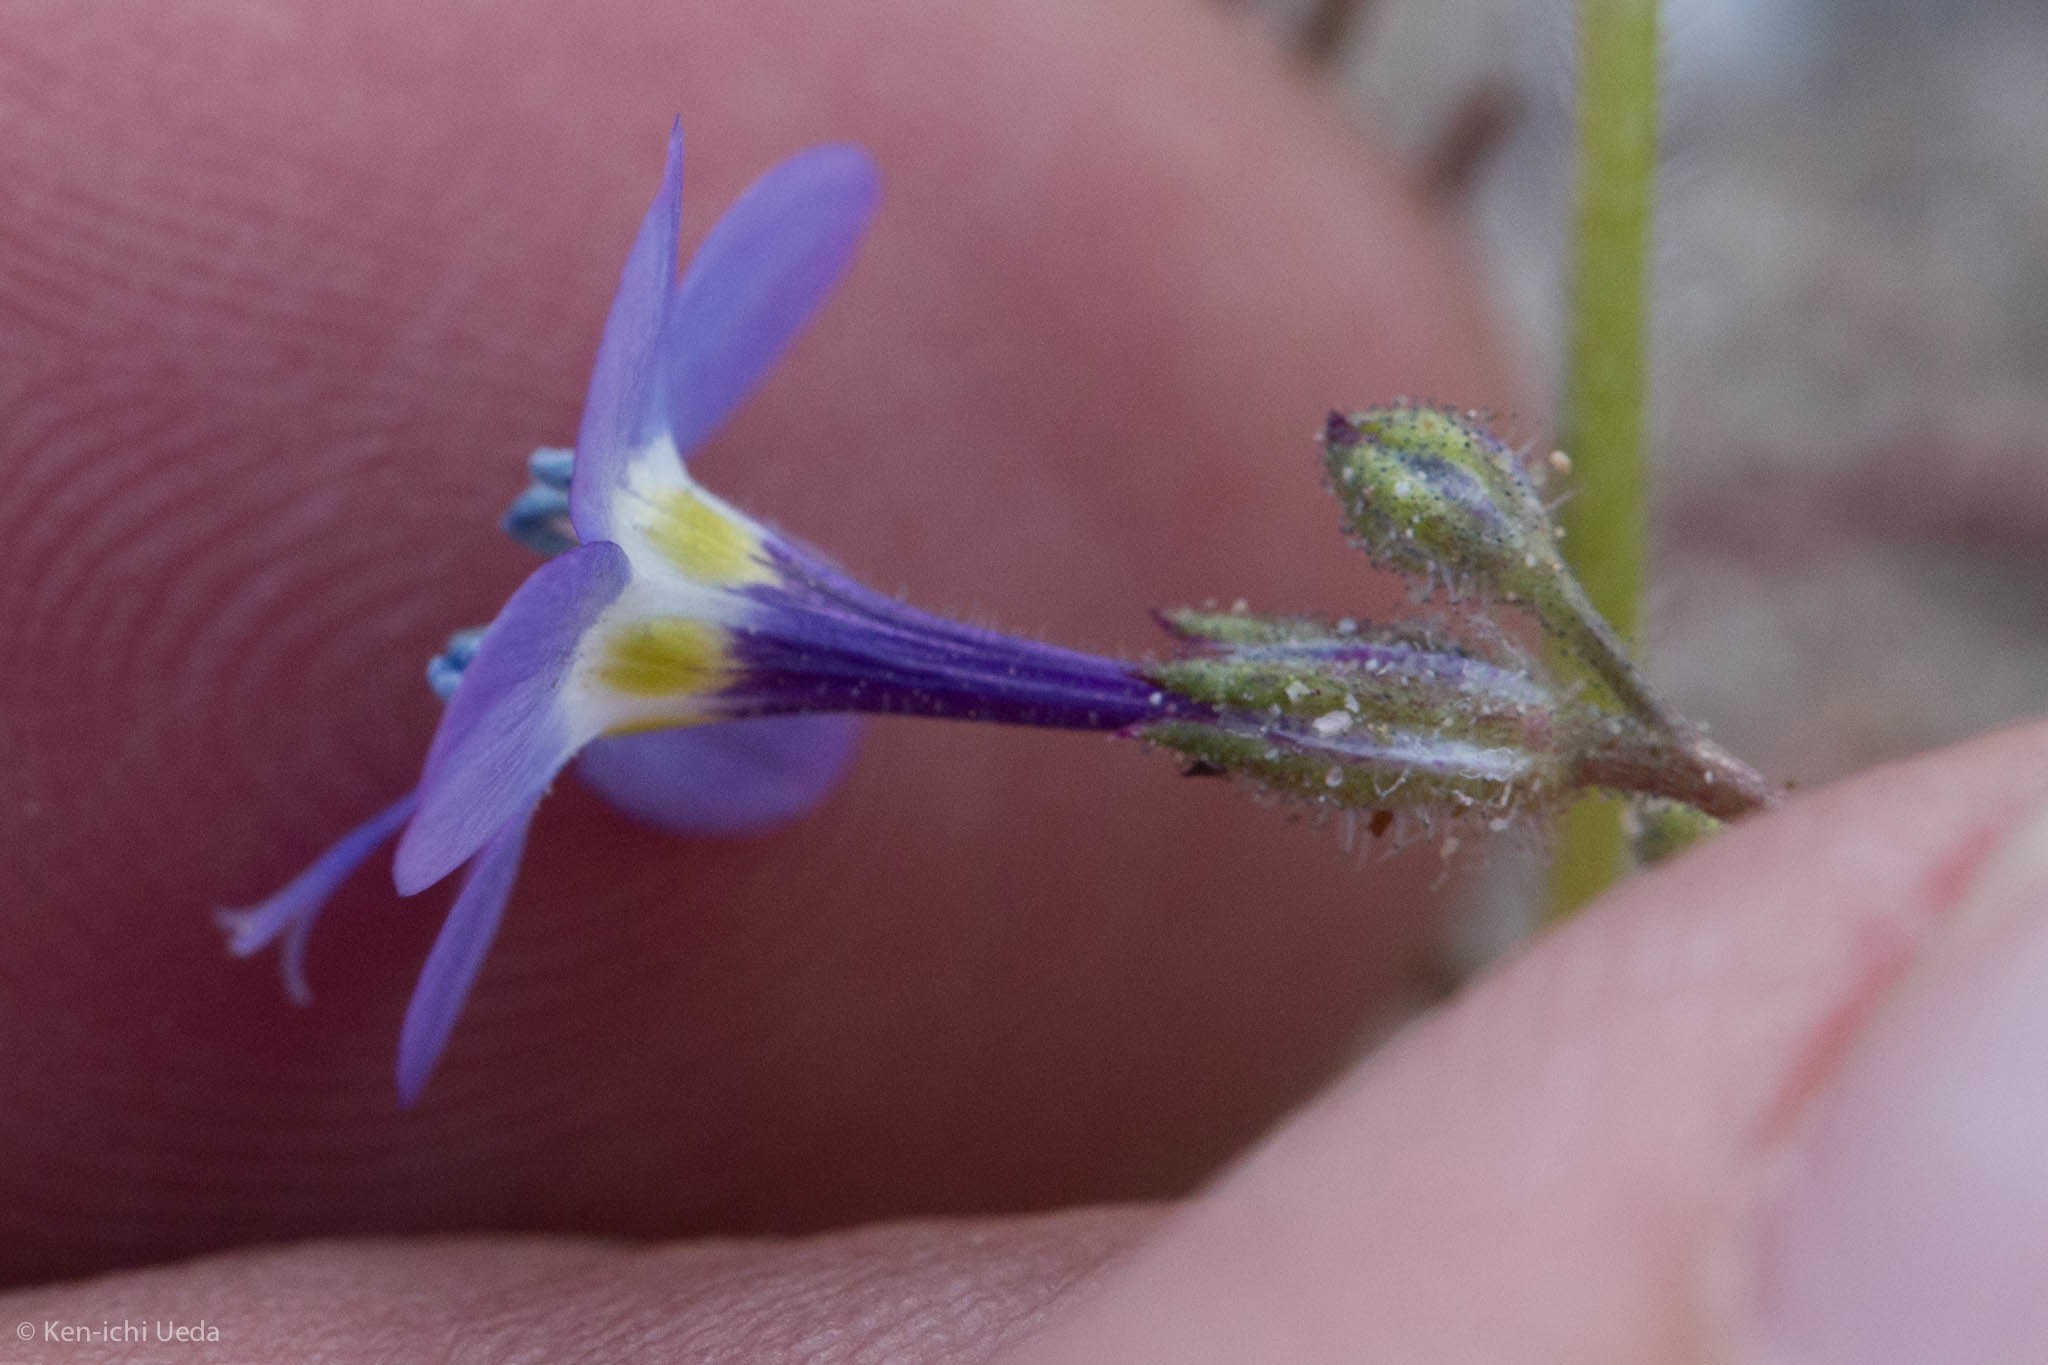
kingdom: Plantae
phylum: Tracheophyta
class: Magnoliopsida
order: Ericales
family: Polemoniaceae
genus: Gilia
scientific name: Gilia brecciarum
